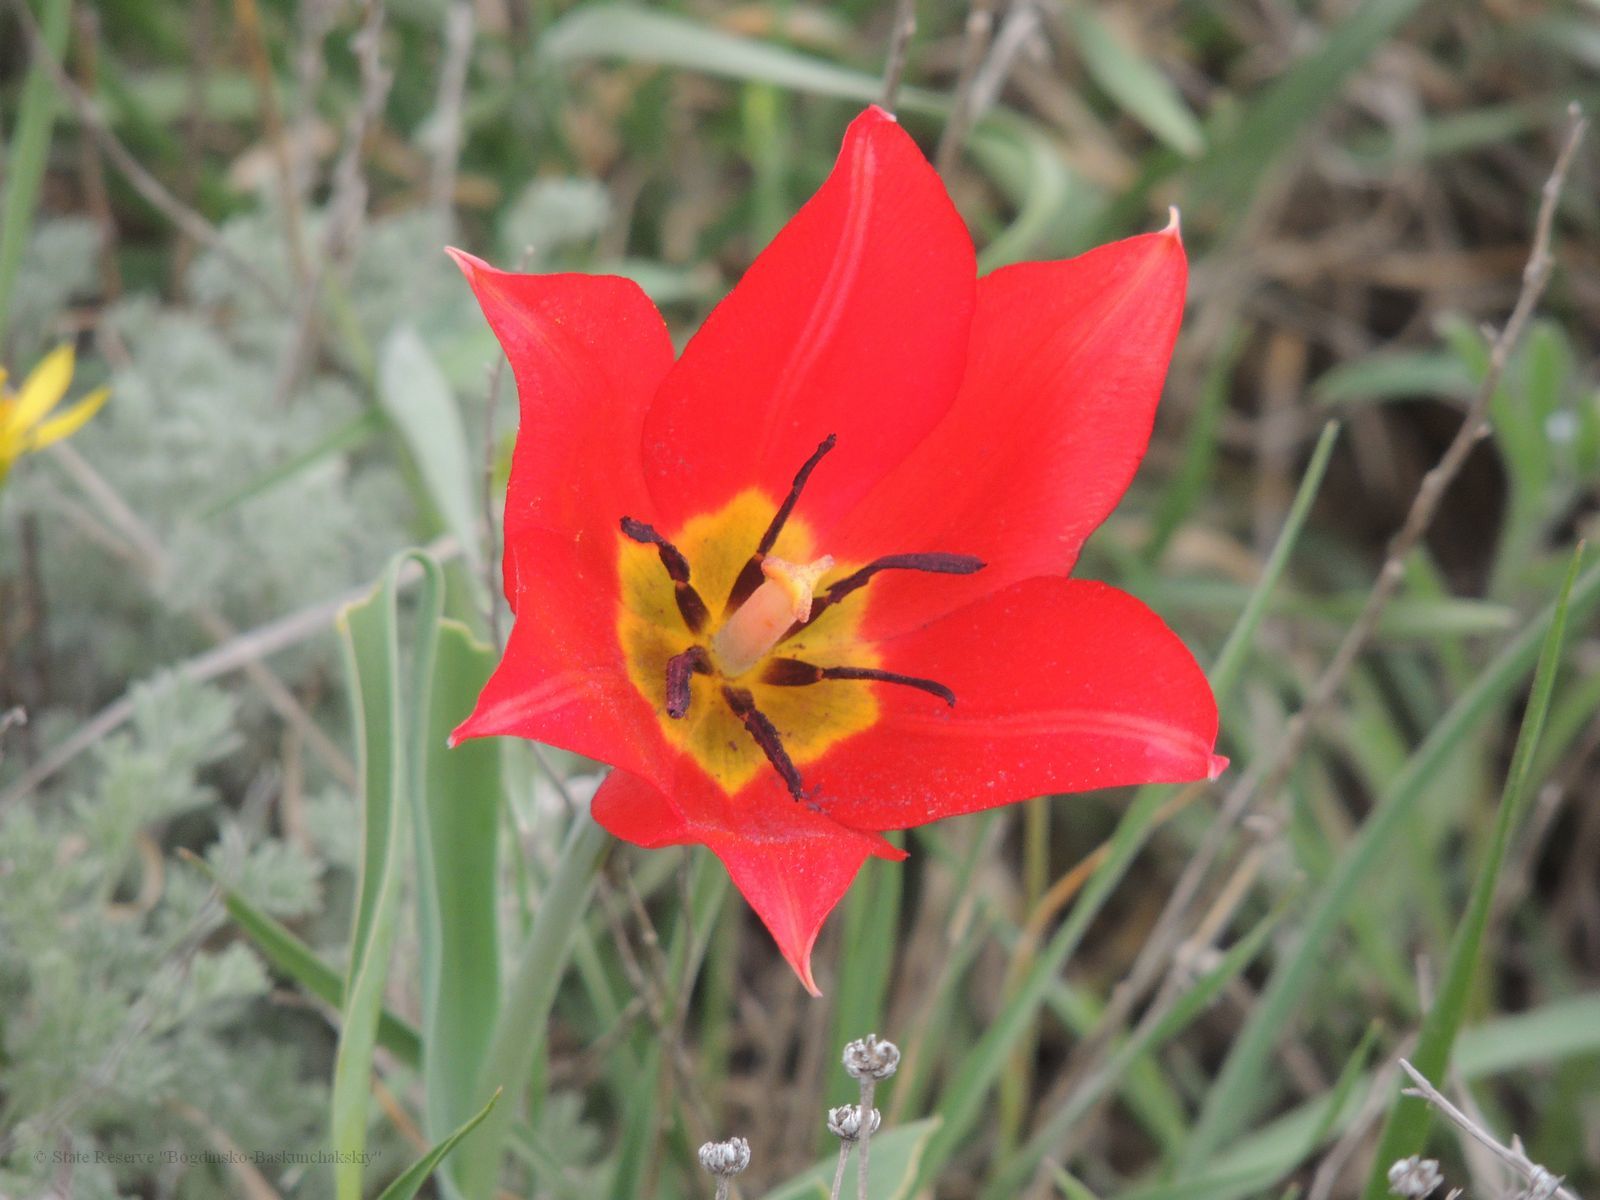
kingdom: Plantae
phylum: Tracheophyta
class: Liliopsida
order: Liliales
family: Liliaceae
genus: Tulipa
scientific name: Tulipa suaveolens
